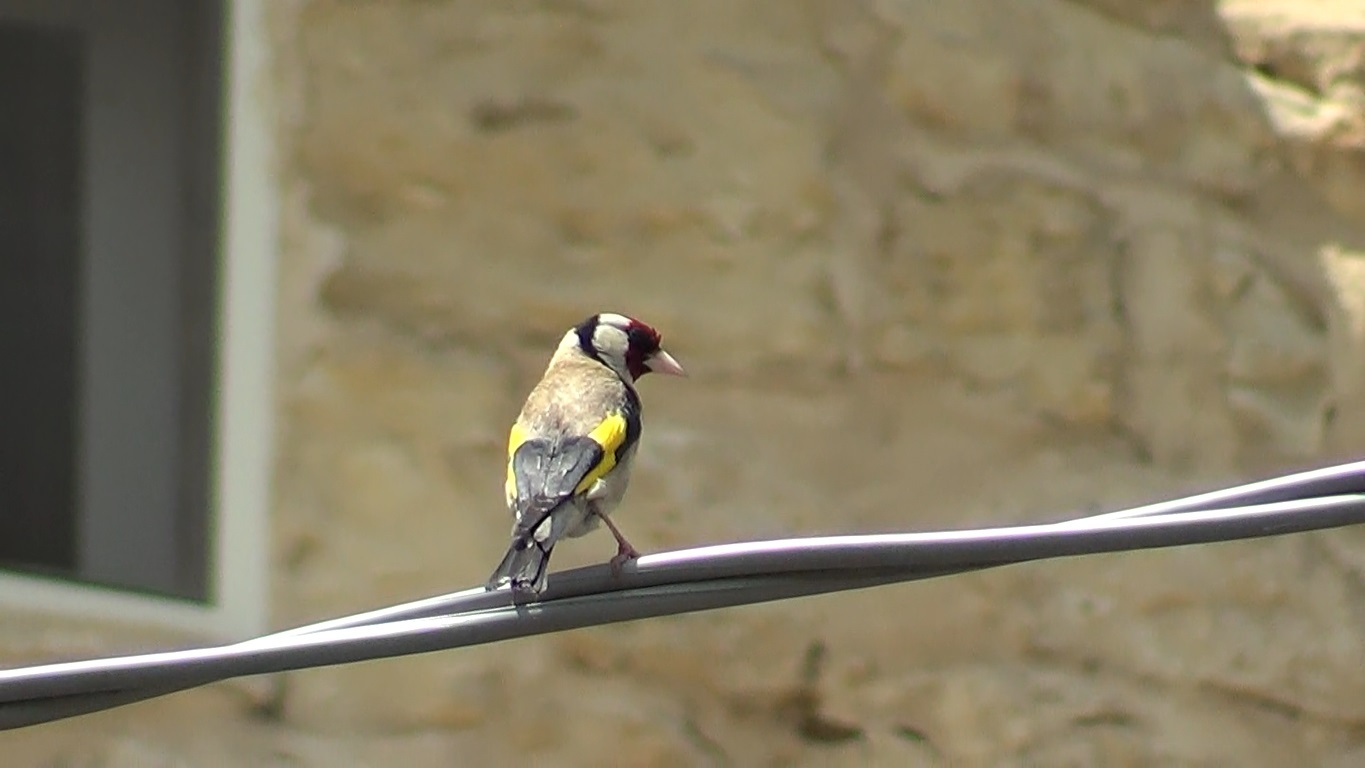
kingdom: Animalia
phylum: Chordata
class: Aves
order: Passeriformes
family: Fringillidae
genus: Carduelis
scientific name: Carduelis carduelis
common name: European goldfinch
